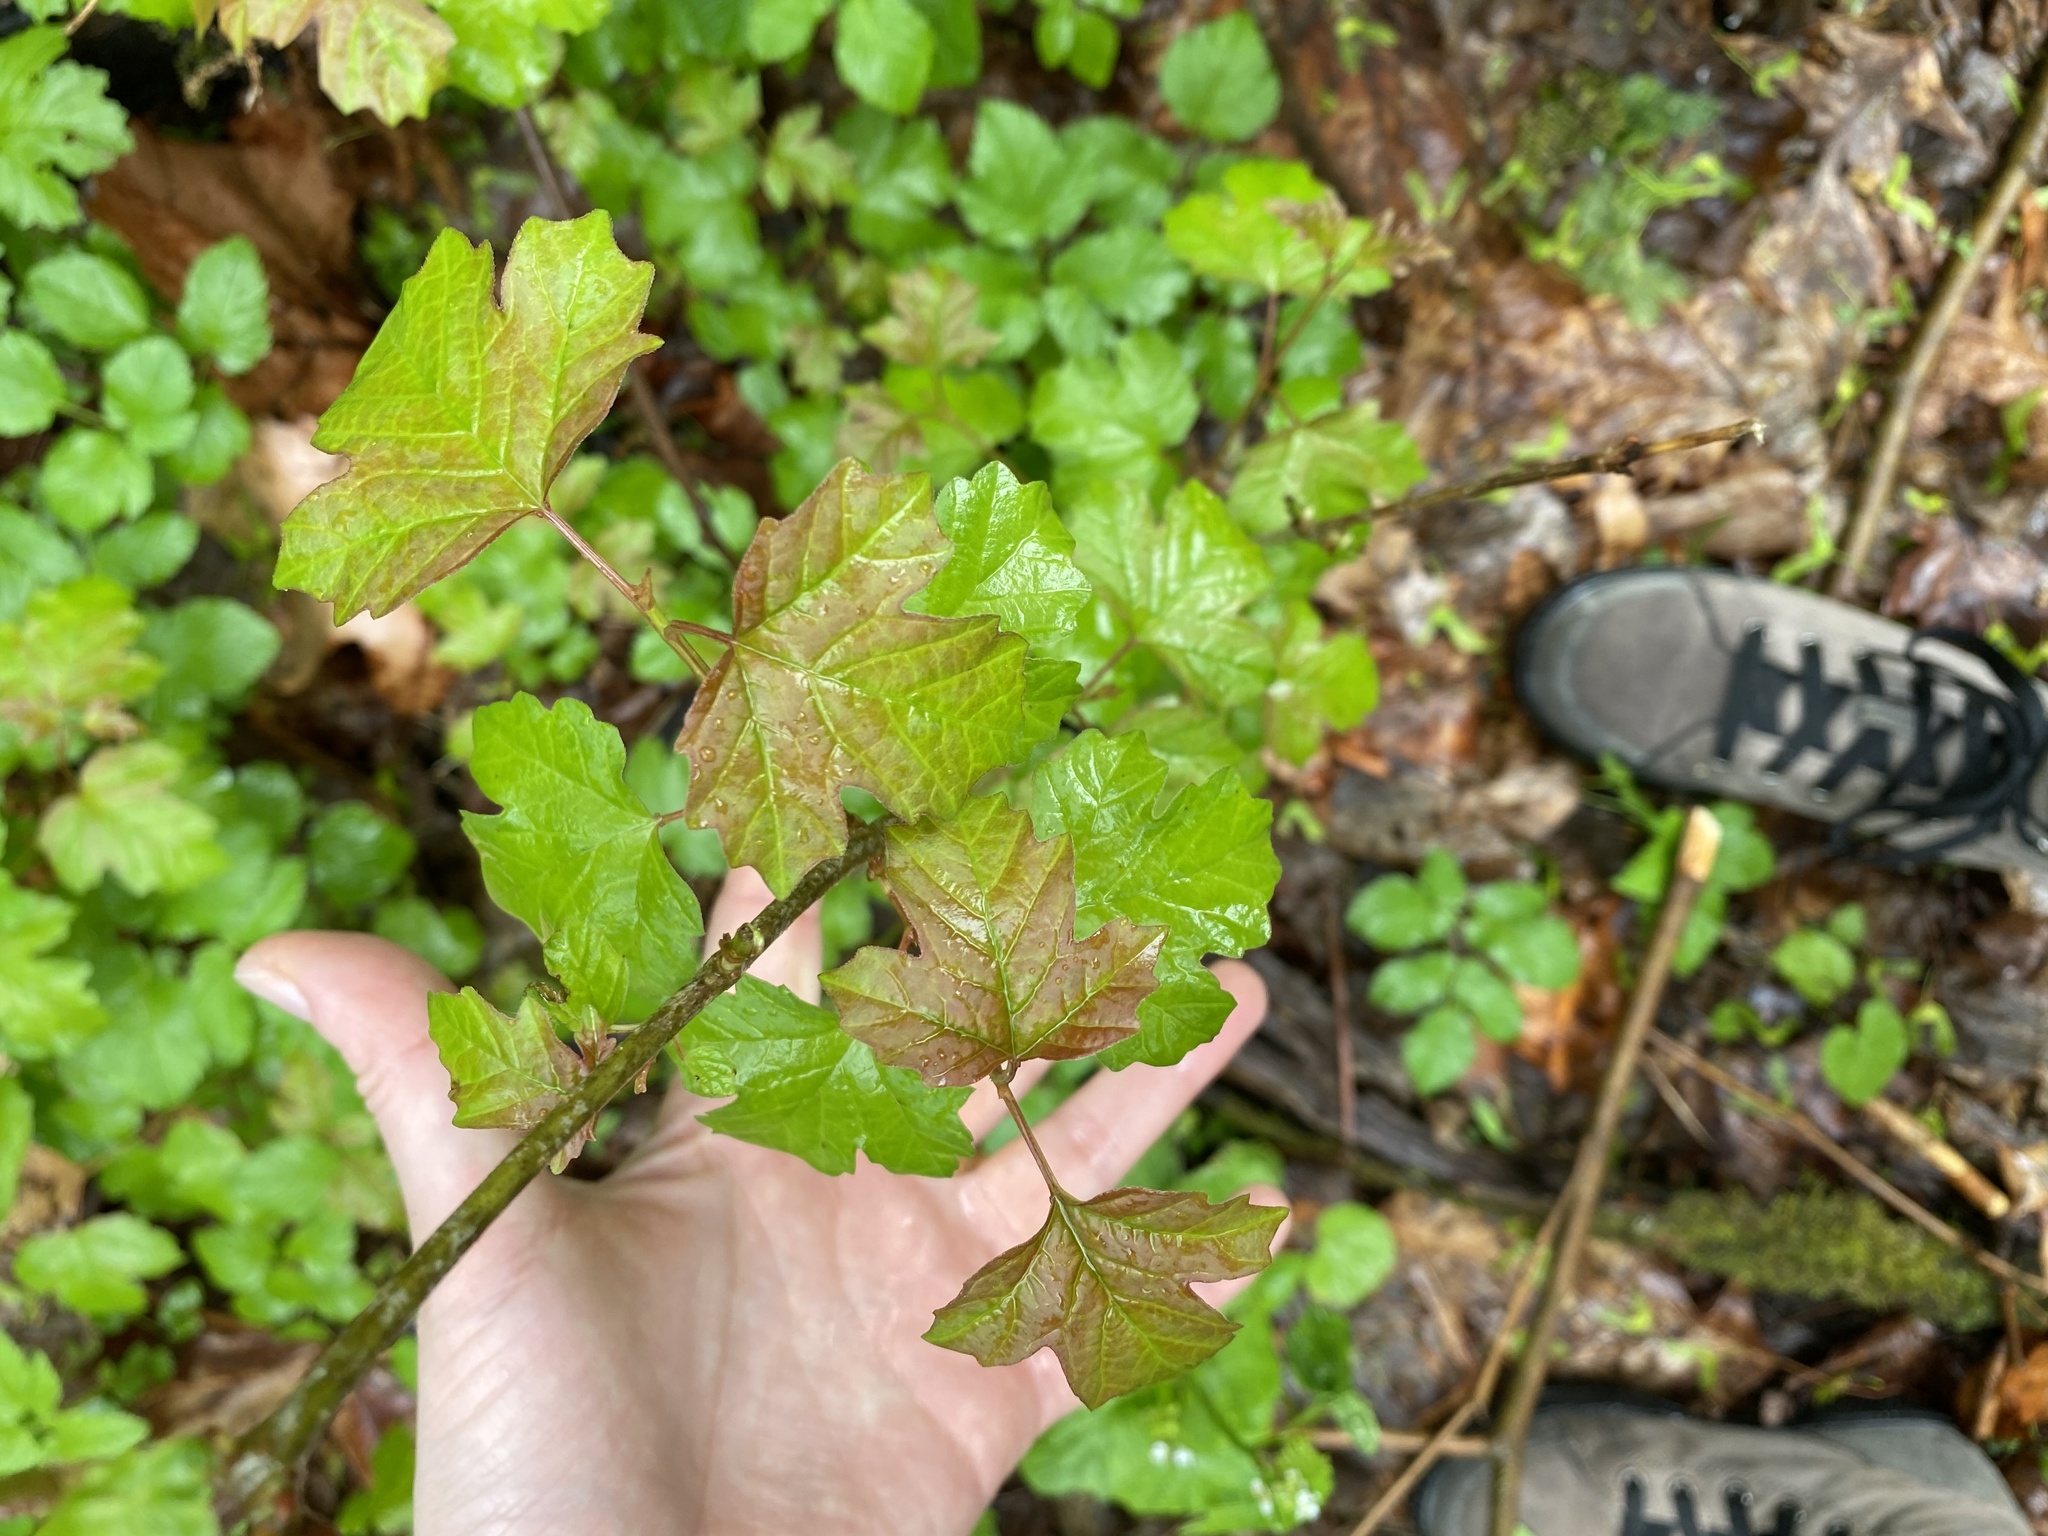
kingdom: Plantae
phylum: Tracheophyta
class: Magnoliopsida
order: Dipsacales
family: Viburnaceae
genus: Viburnum
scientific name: Viburnum opulus
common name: Guelder-rose
